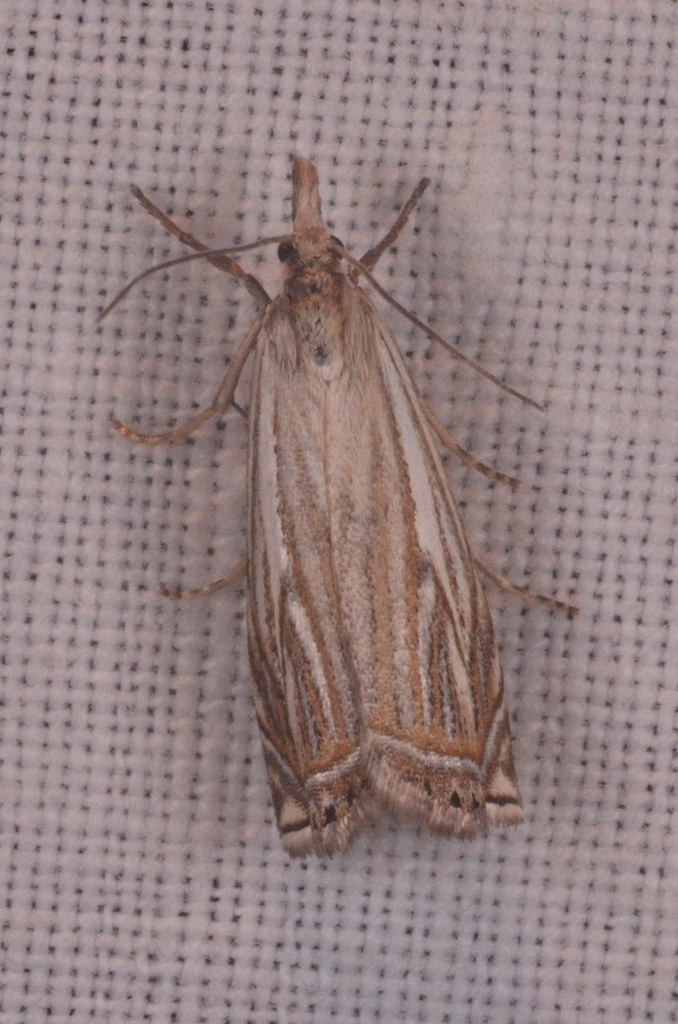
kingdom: Animalia
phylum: Arthropoda
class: Insecta
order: Lepidoptera
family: Crambidae
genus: Crambus
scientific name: Crambus nemorella
